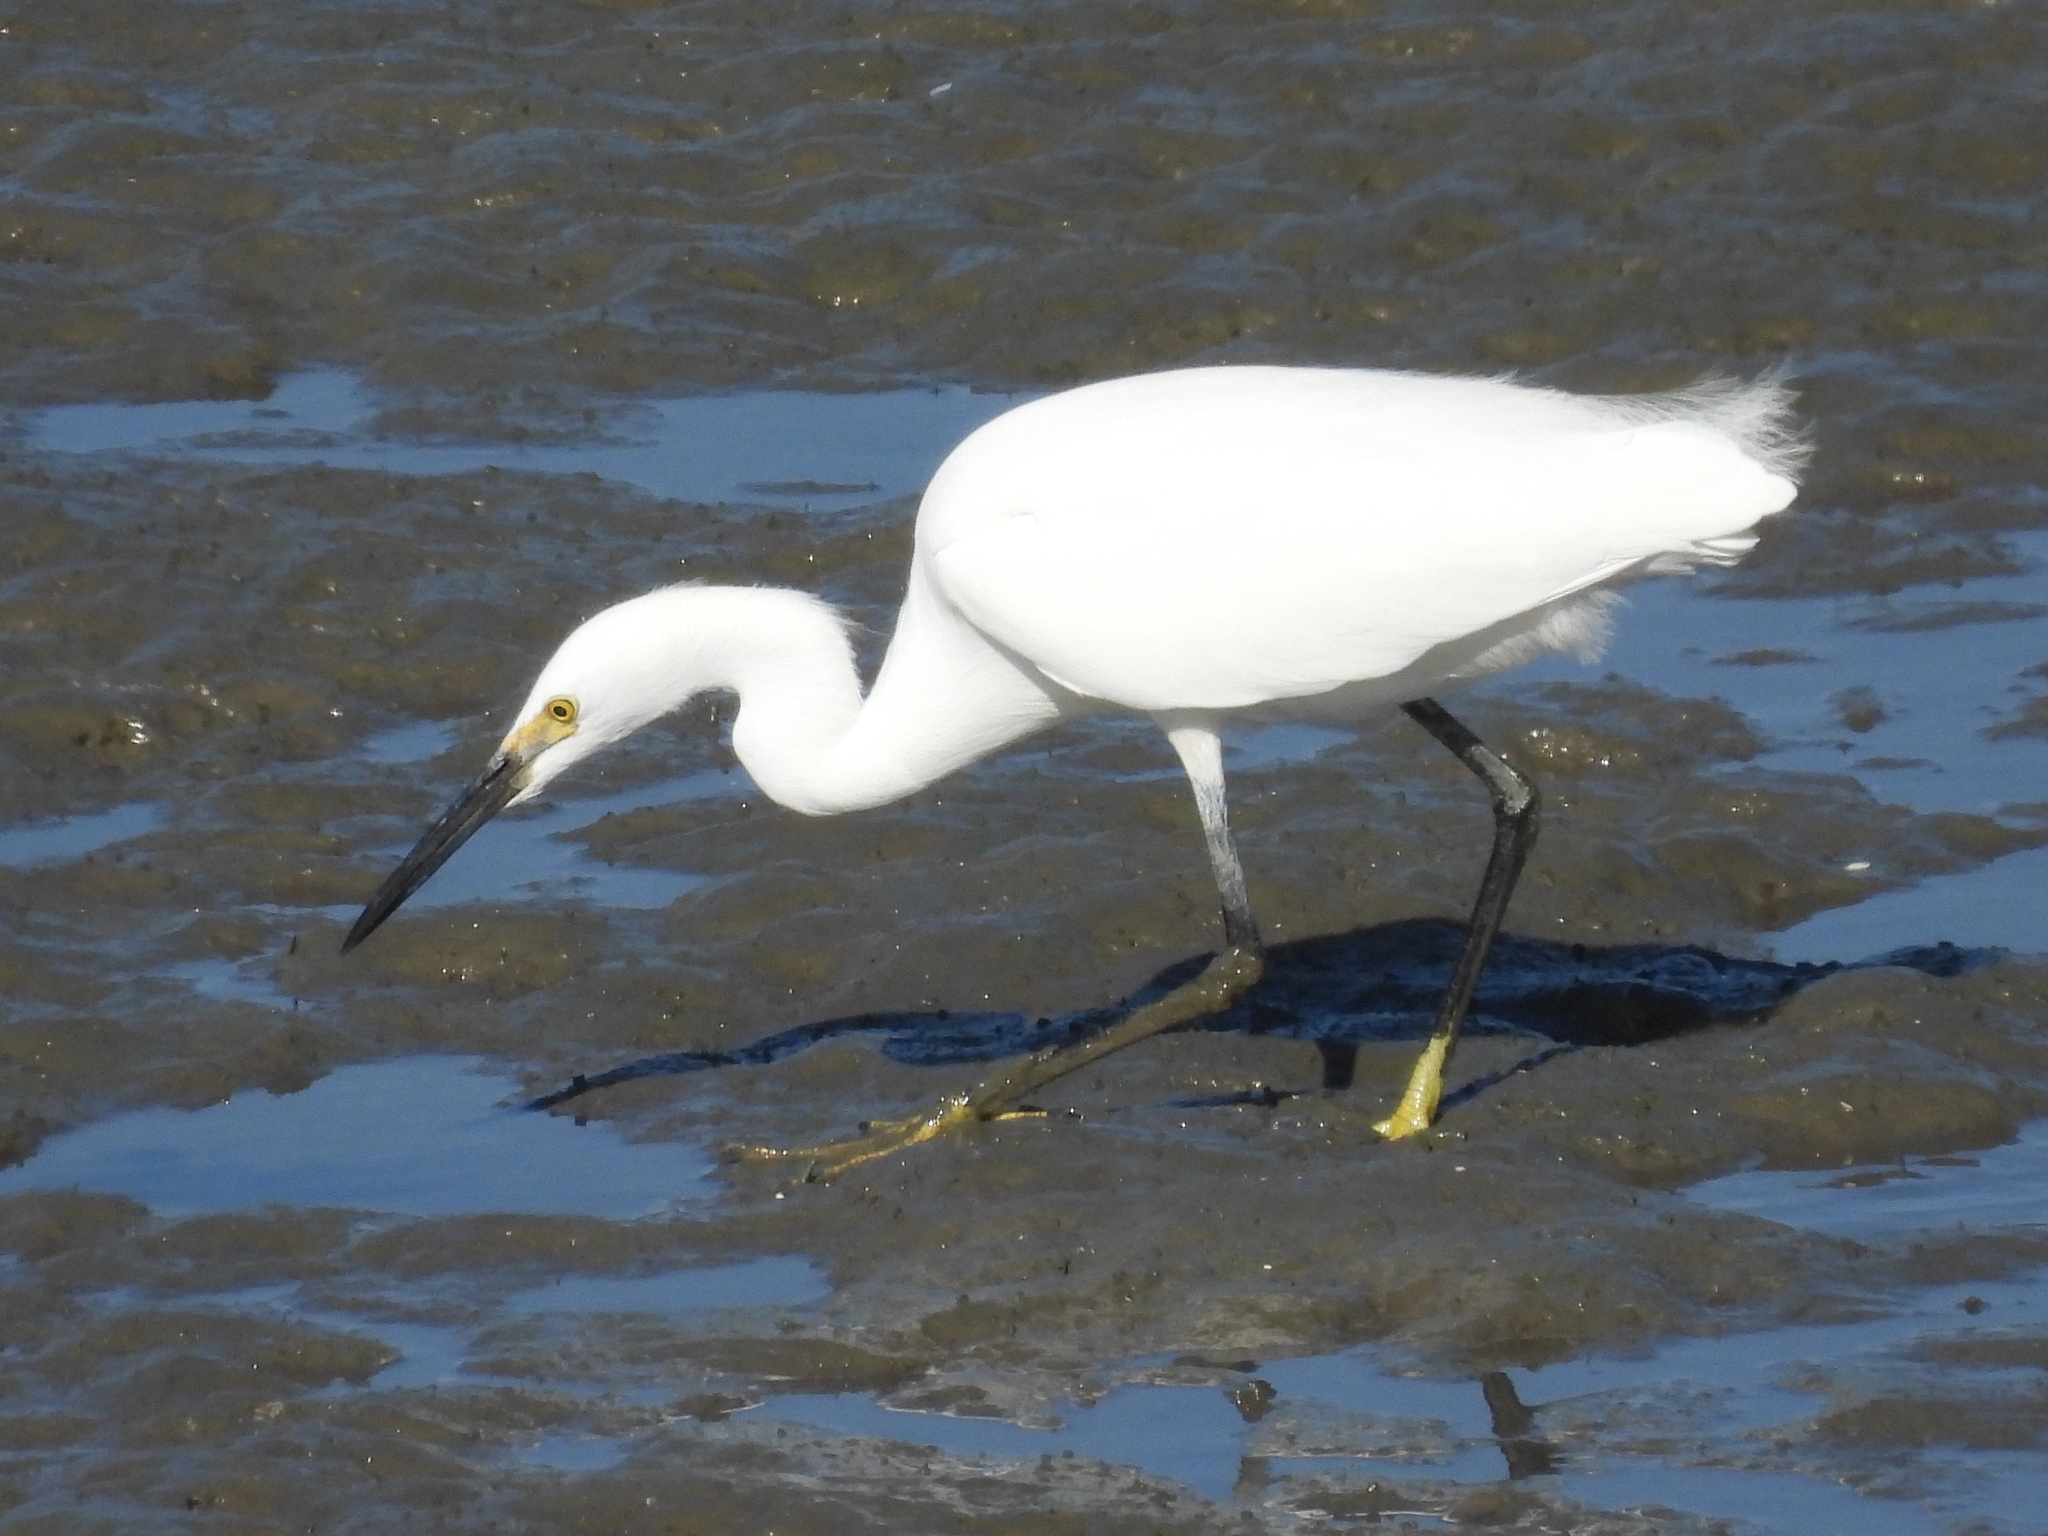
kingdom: Animalia
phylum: Chordata
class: Aves
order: Pelecaniformes
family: Ardeidae
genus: Egretta
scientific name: Egretta thula
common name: Snowy egret
